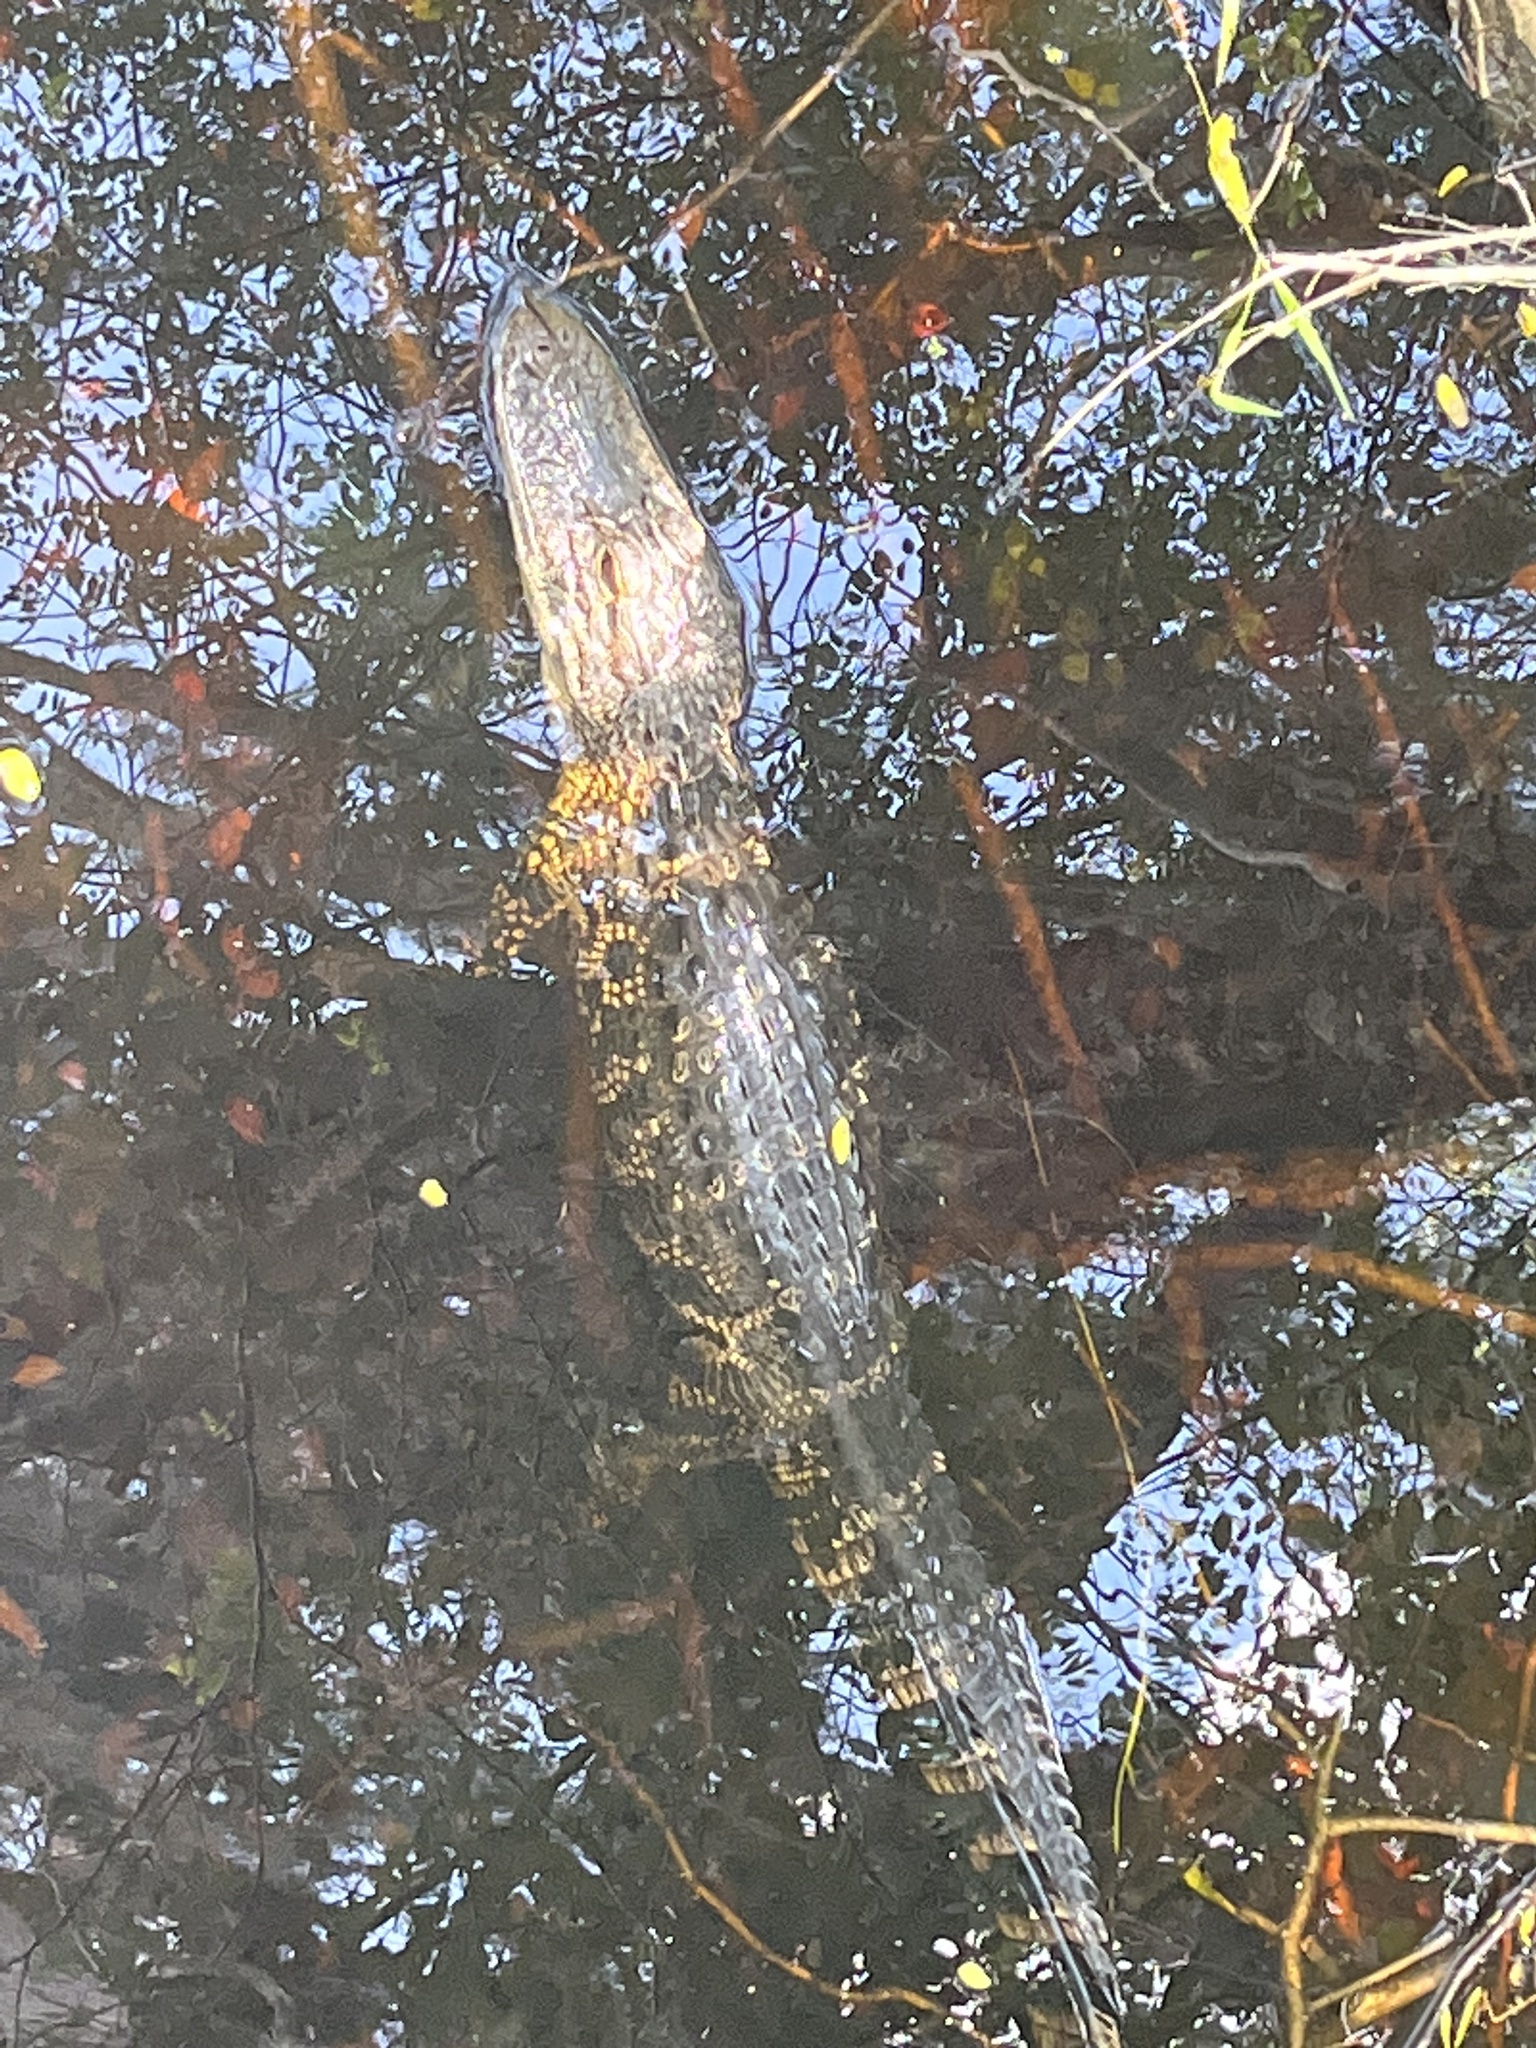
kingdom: Animalia
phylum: Chordata
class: Crocodylia
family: Alligatoridae
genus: Alligator
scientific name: Alligator mississippiensis
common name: American alligator
